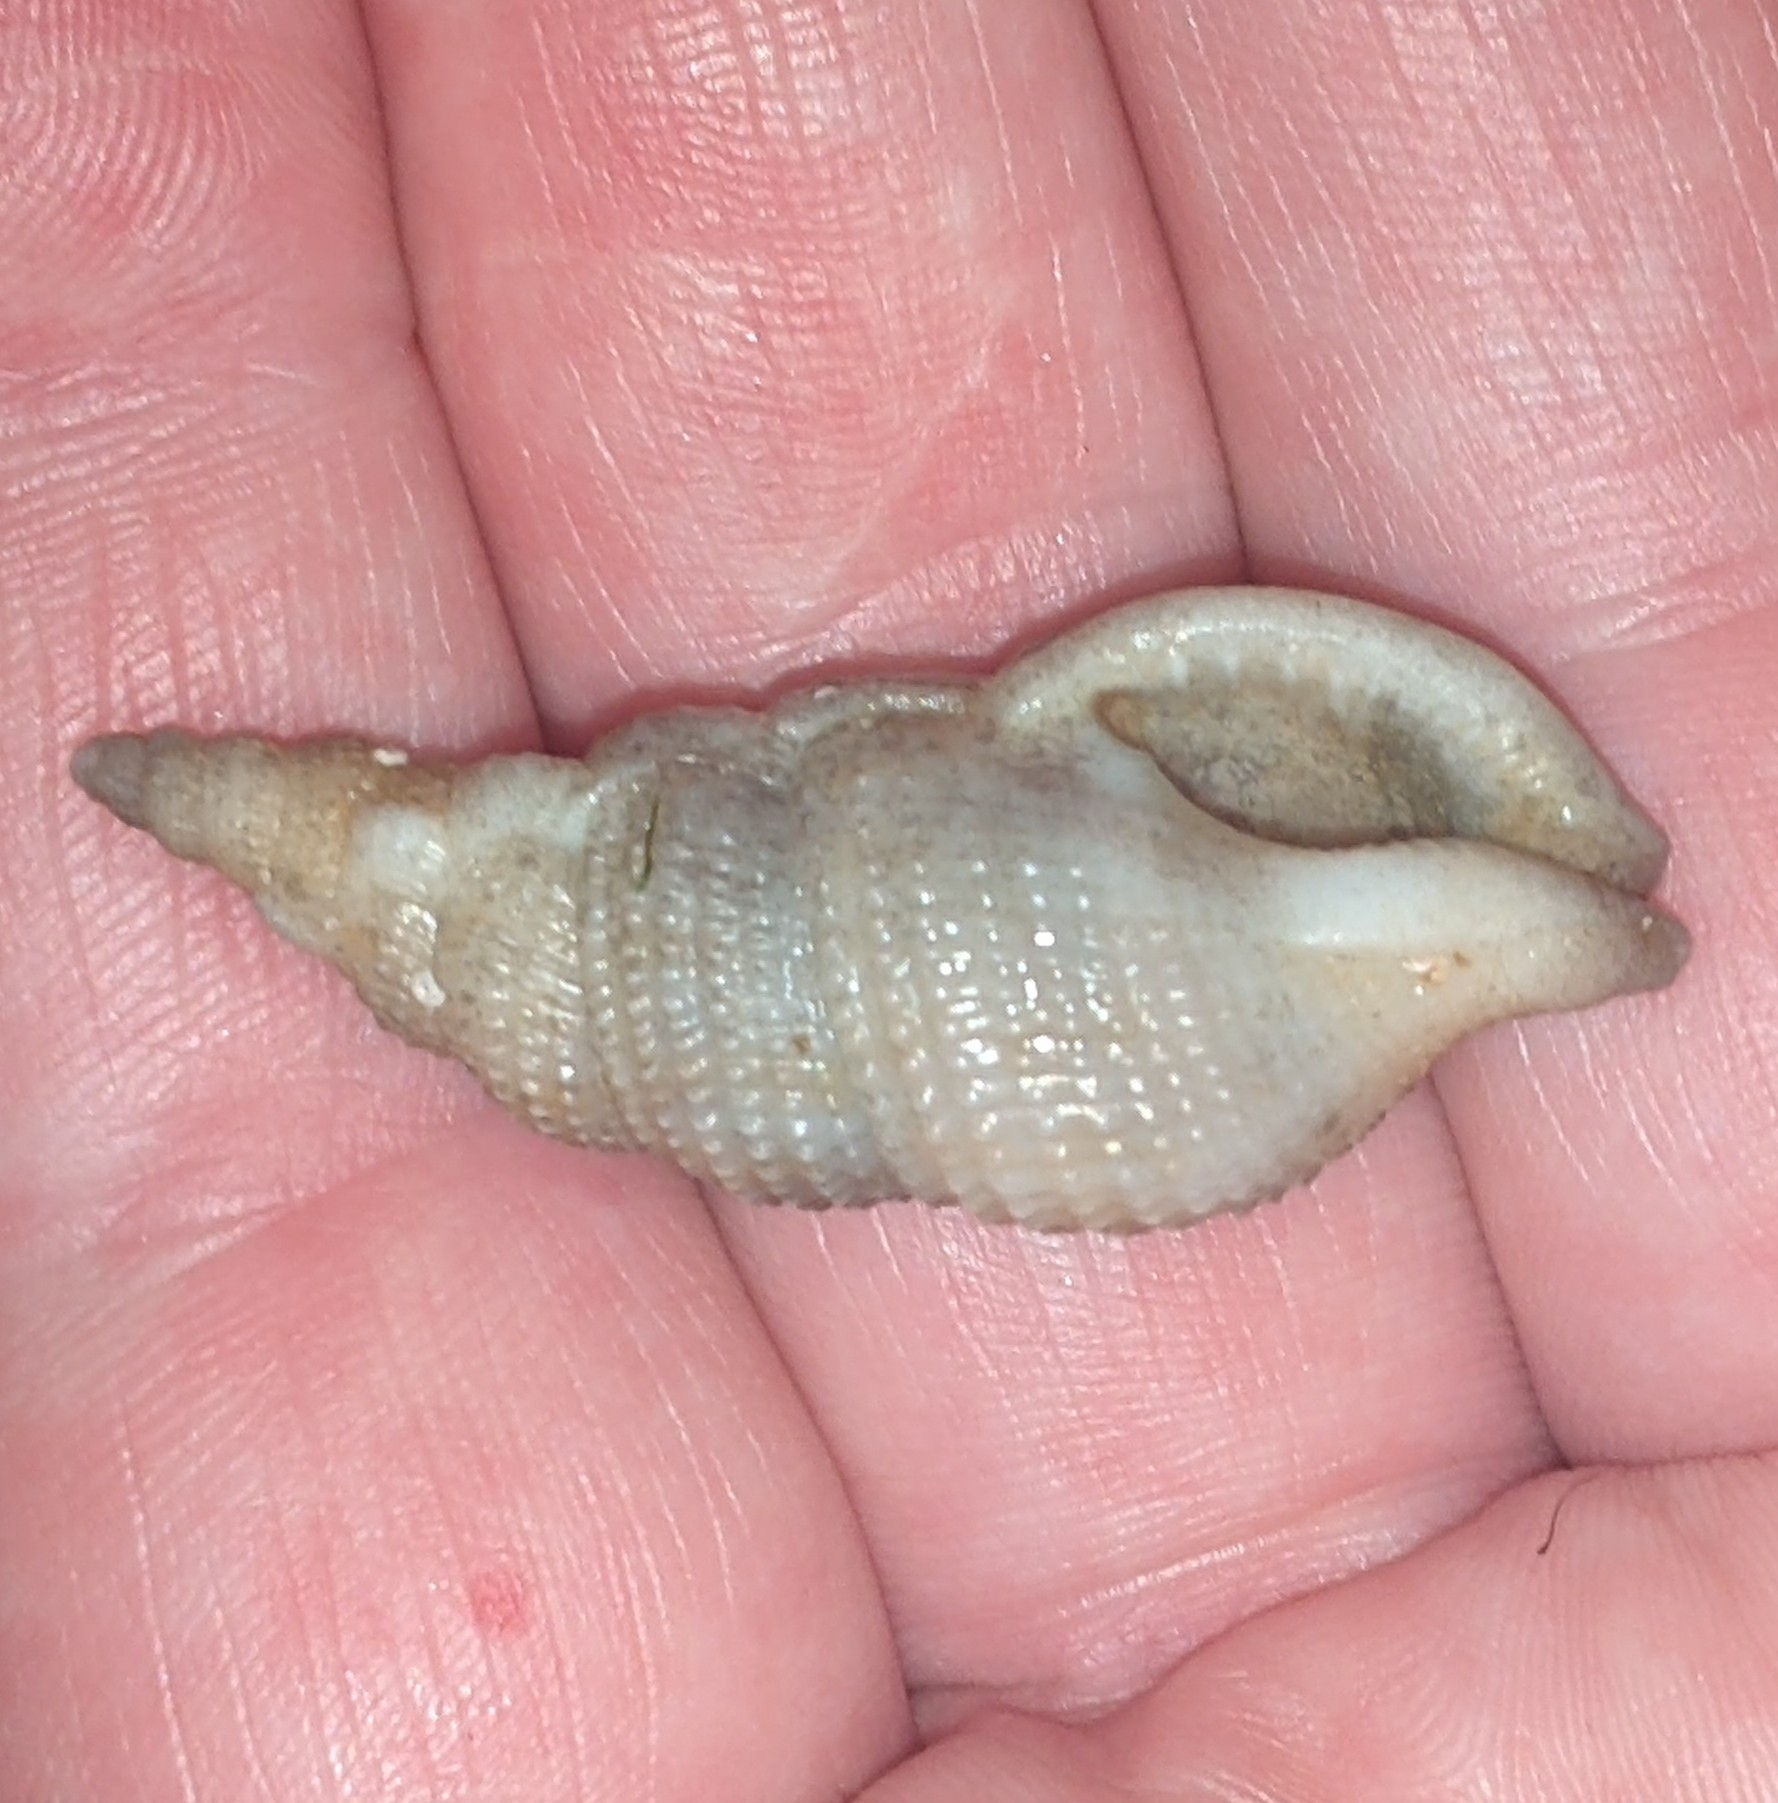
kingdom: Animalia
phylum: Mollusca
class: Gastropoda
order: Neogastropoda
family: Colubrariidae
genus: Colubraria
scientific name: Colubraria tortuosa
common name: Twisted dwarf triton
